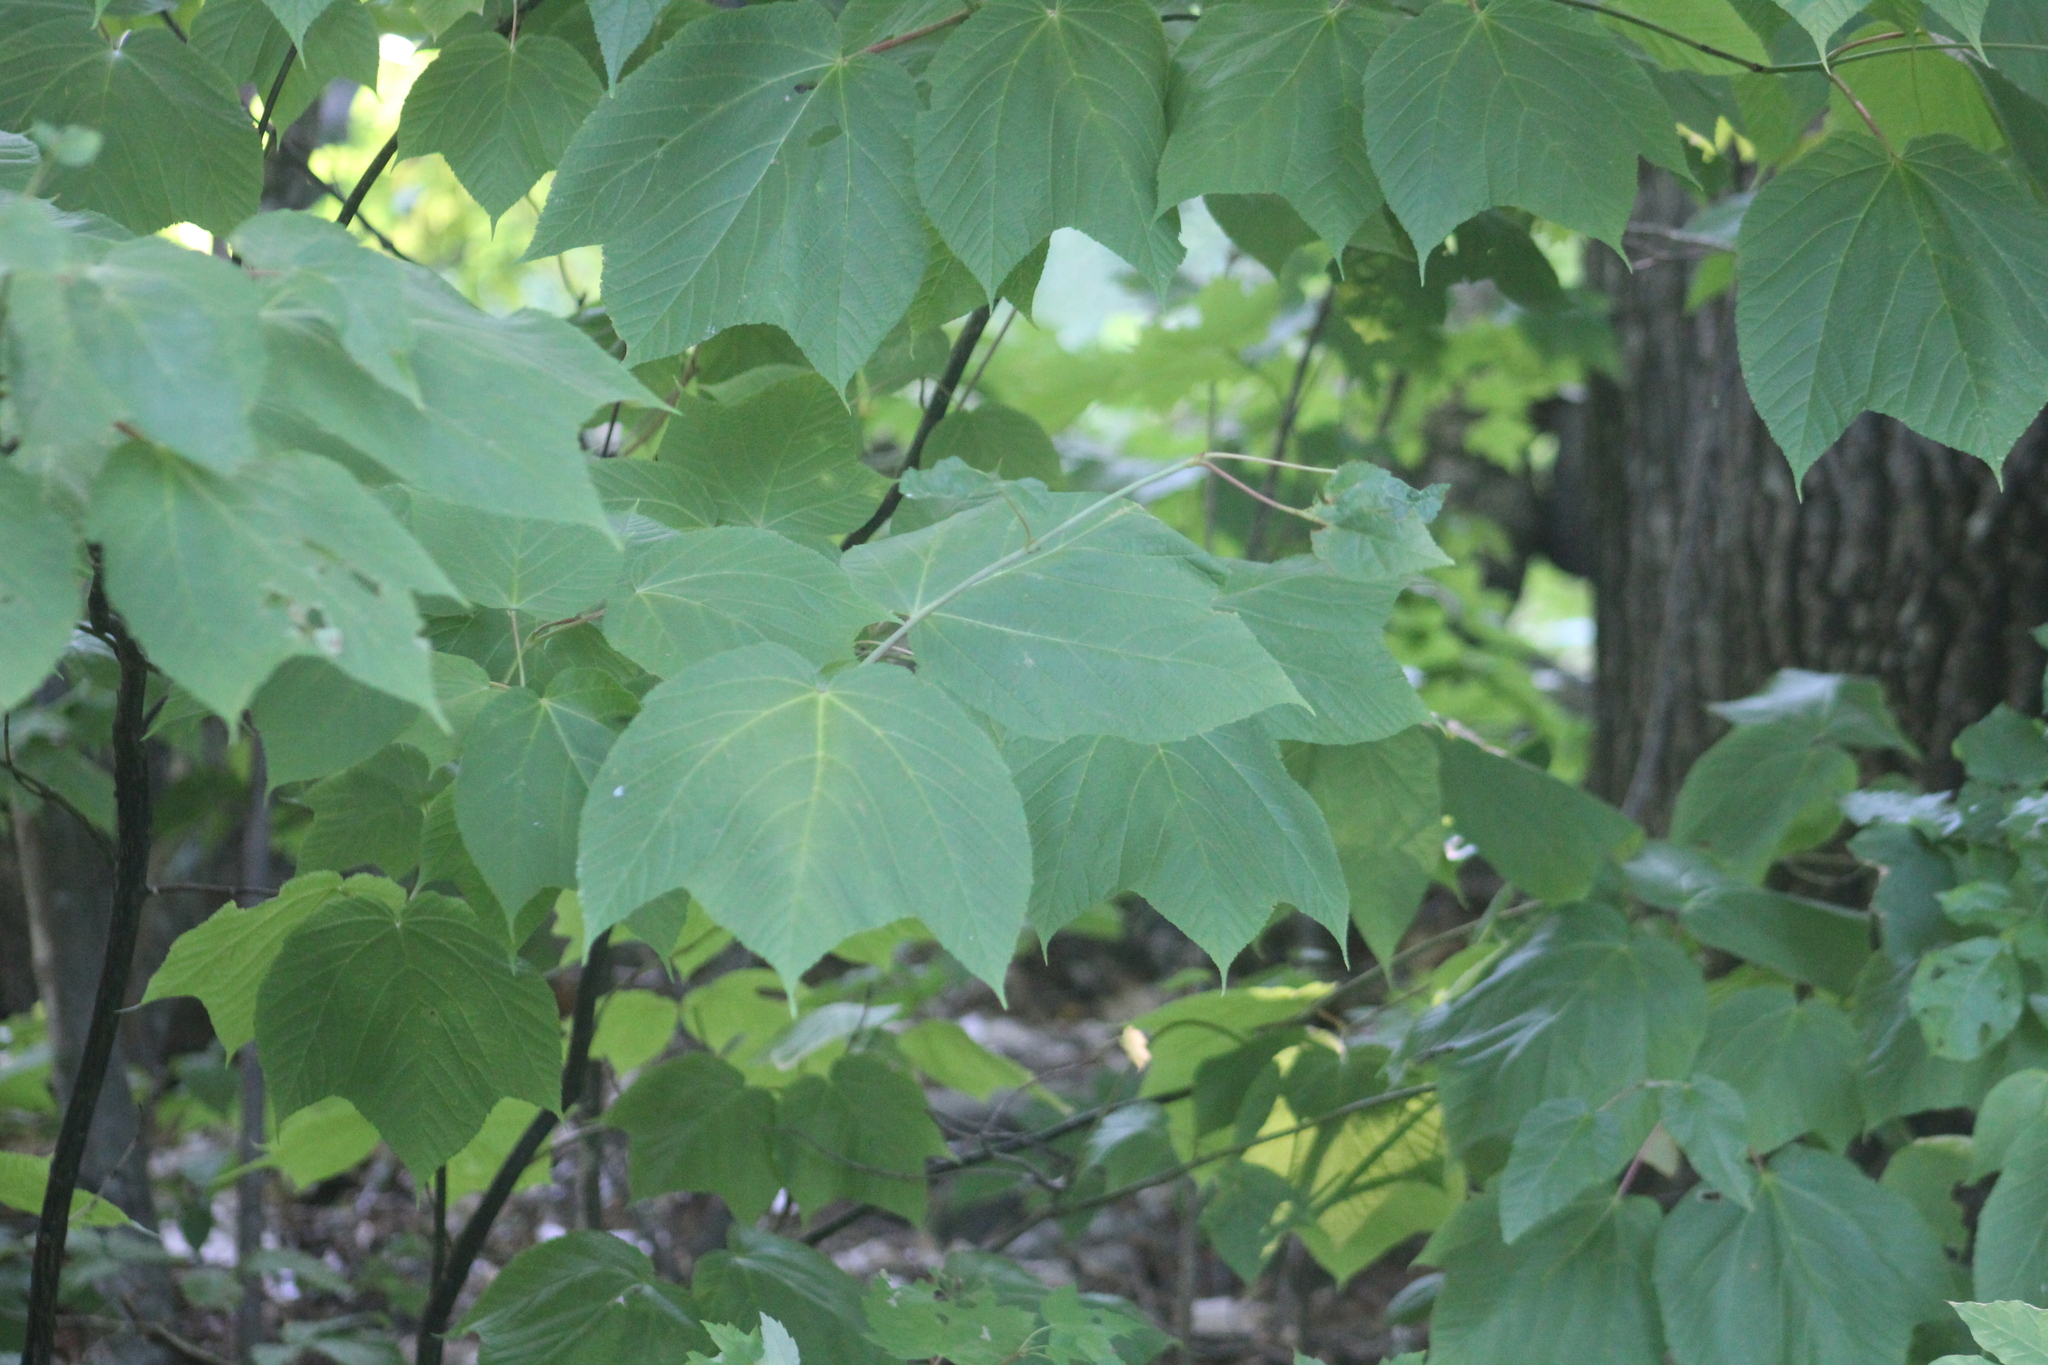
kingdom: Plantae
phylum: Tracheophyta
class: Magnoliopsida
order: Sapindales
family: Sapindaceae
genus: Acer
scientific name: Acer pensylvanicum
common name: Moosewood
